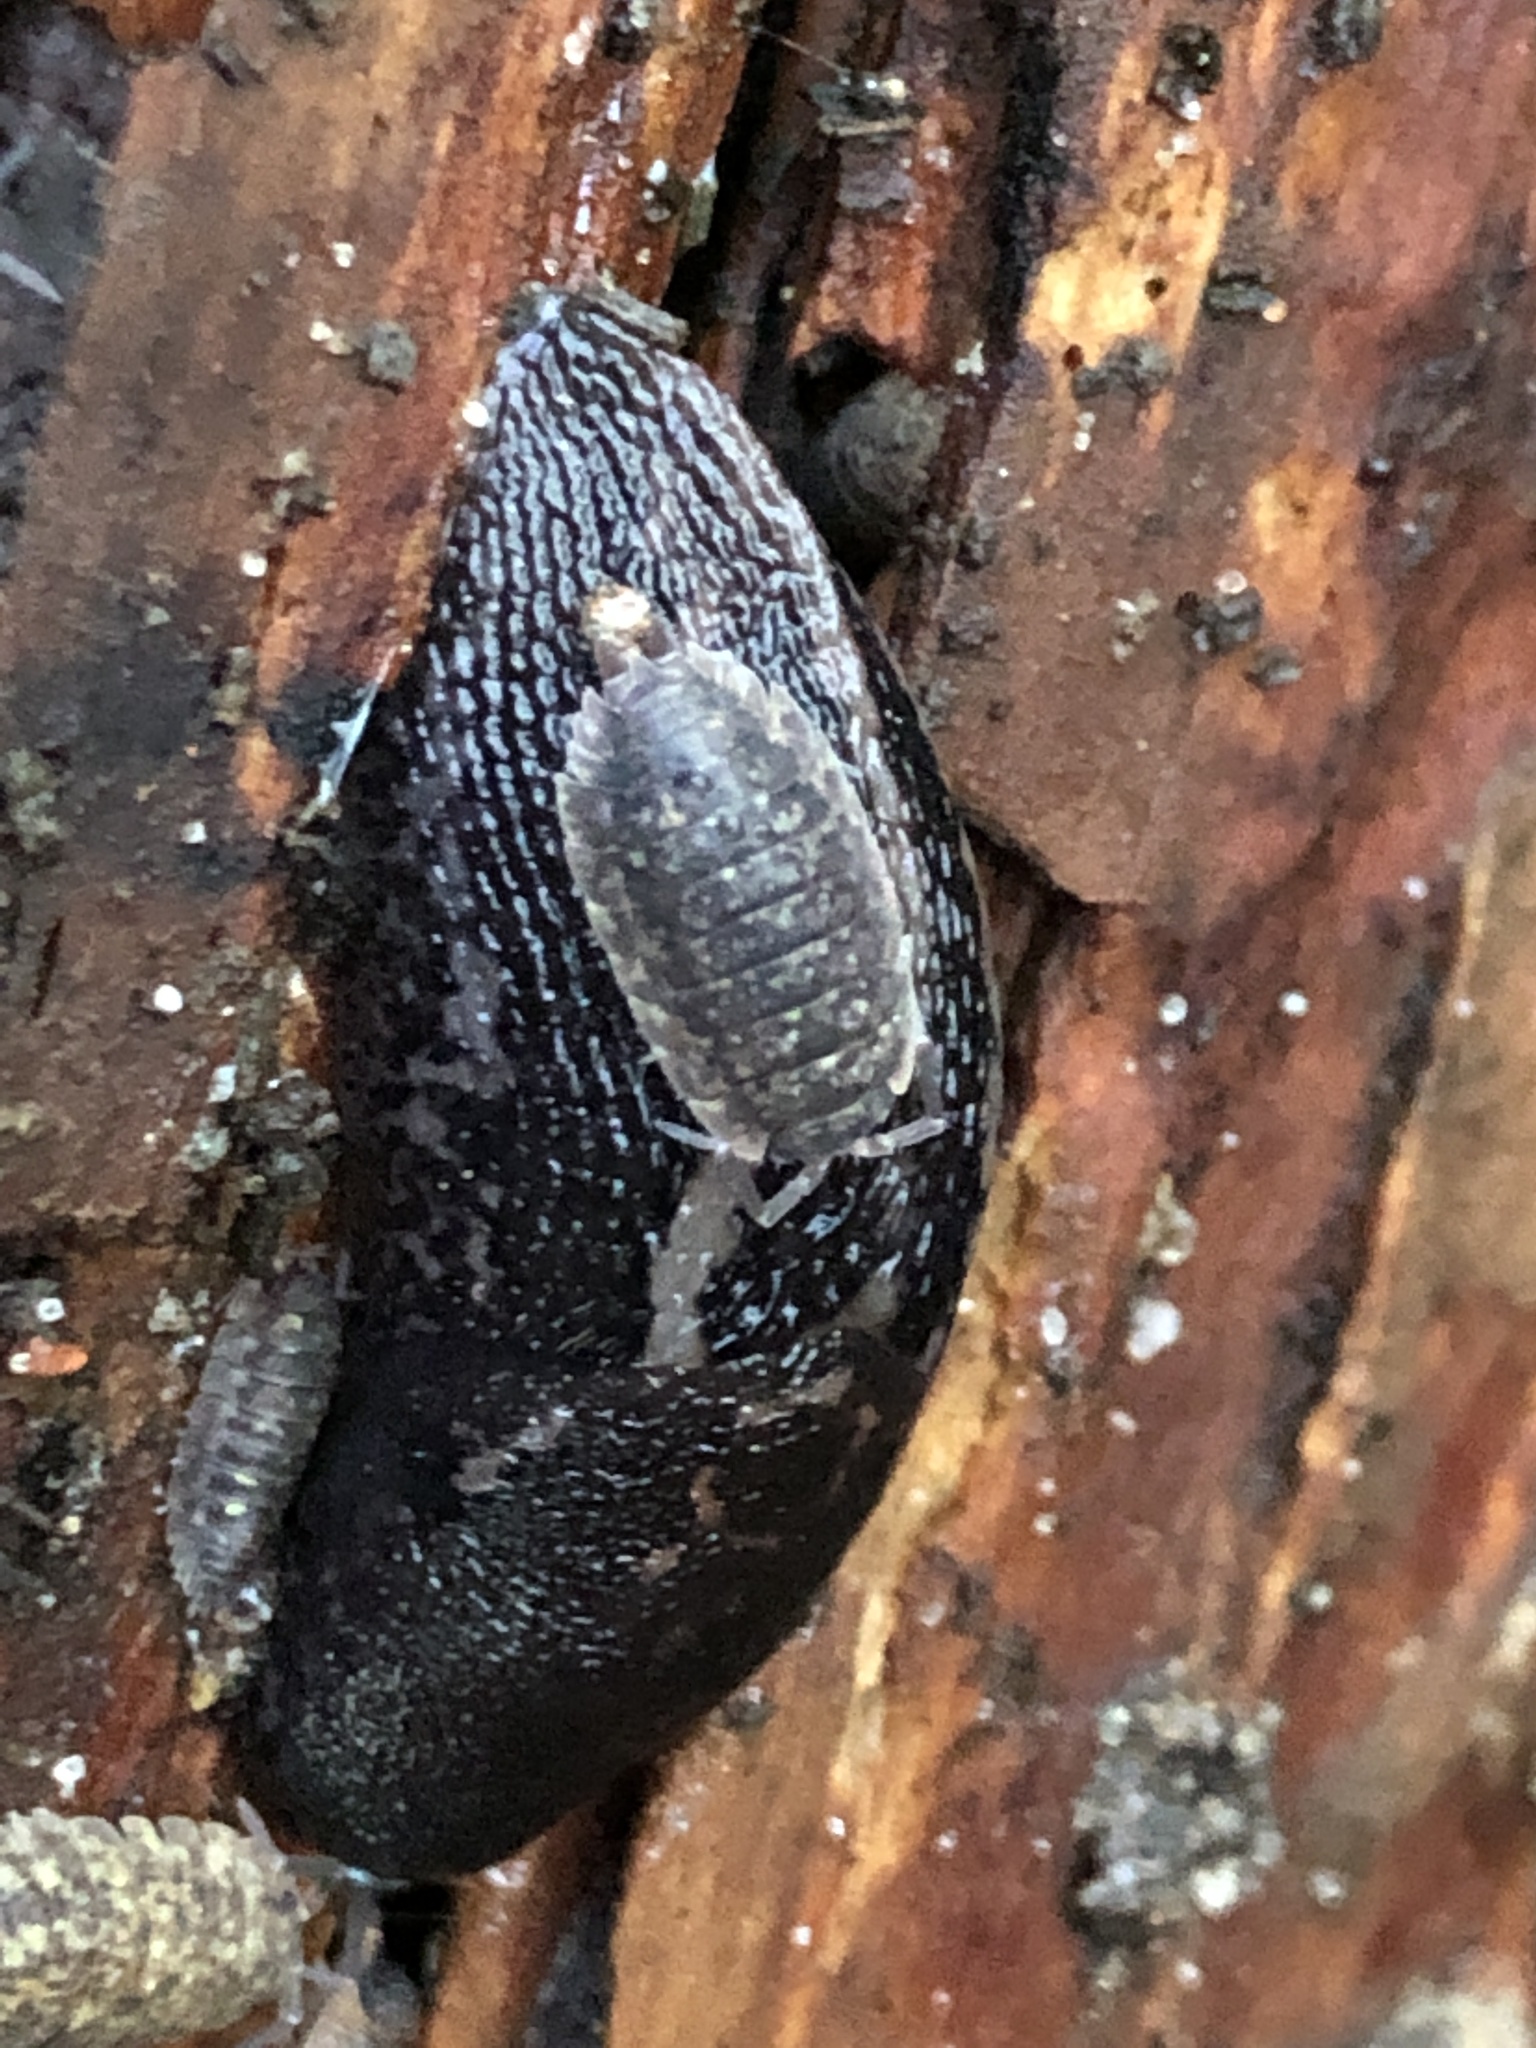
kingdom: Animalia
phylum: Arthropoda
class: Malacostraca
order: Isopoda
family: Porcellionidae
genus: Porcellio
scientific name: Porcellio scaber
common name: Common rough woodlouse
